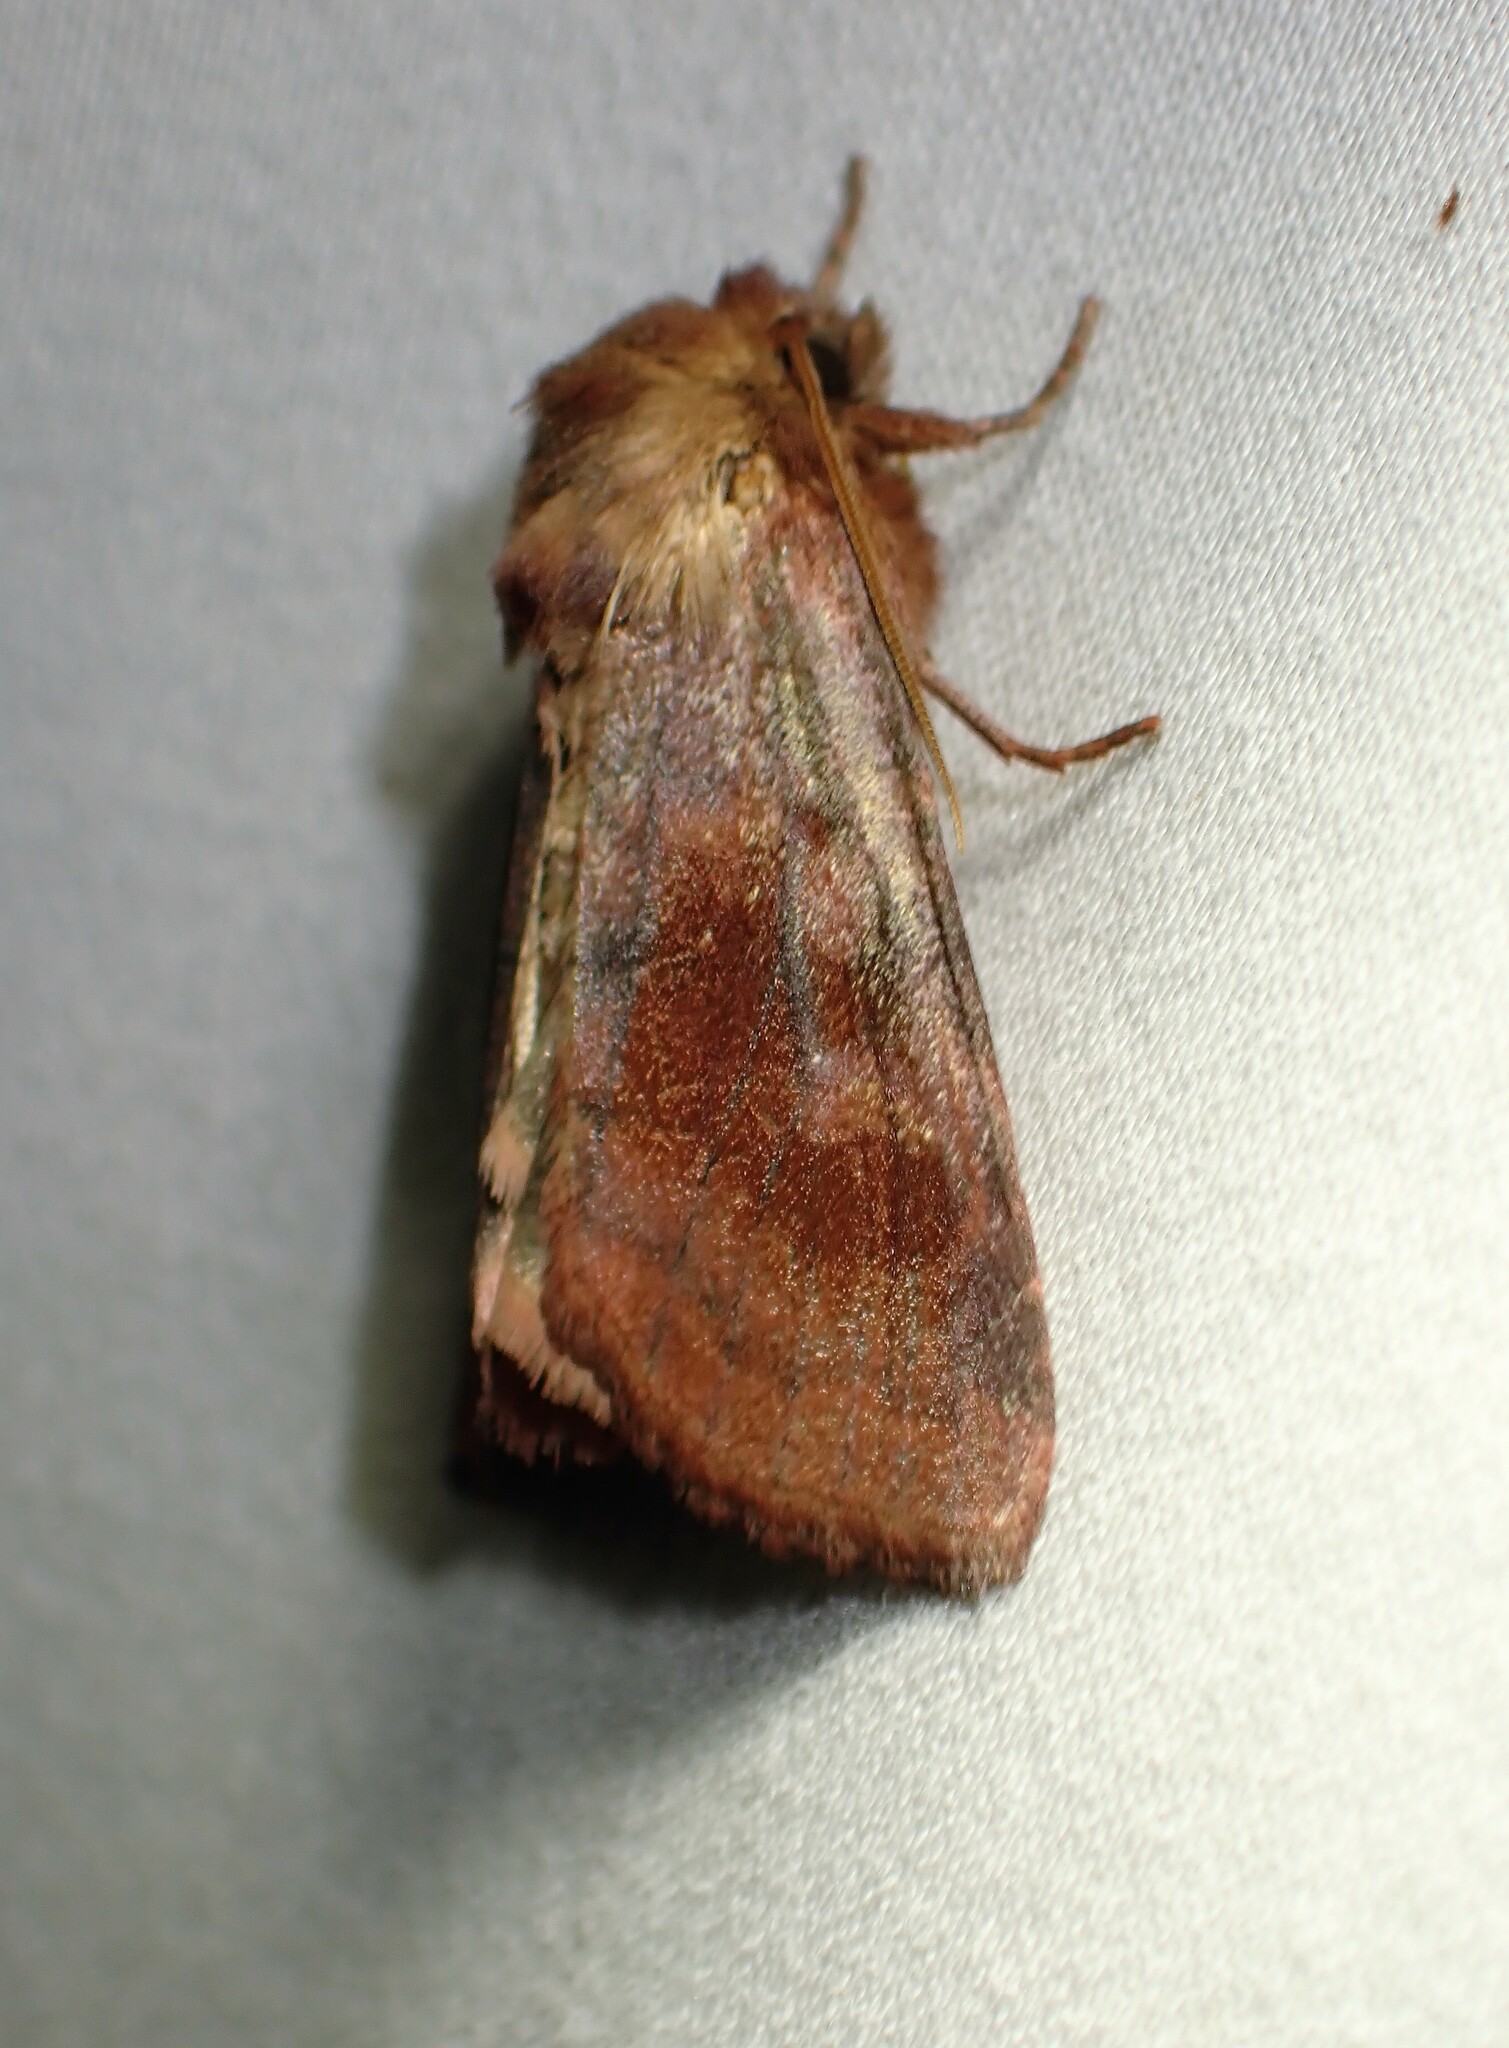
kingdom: Animalia
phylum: Arthropoda
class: Insecta
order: Lepidoptera
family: Noctuidae
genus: Nephelodes
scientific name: Nephelodes minians
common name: Bronzed cutworm
